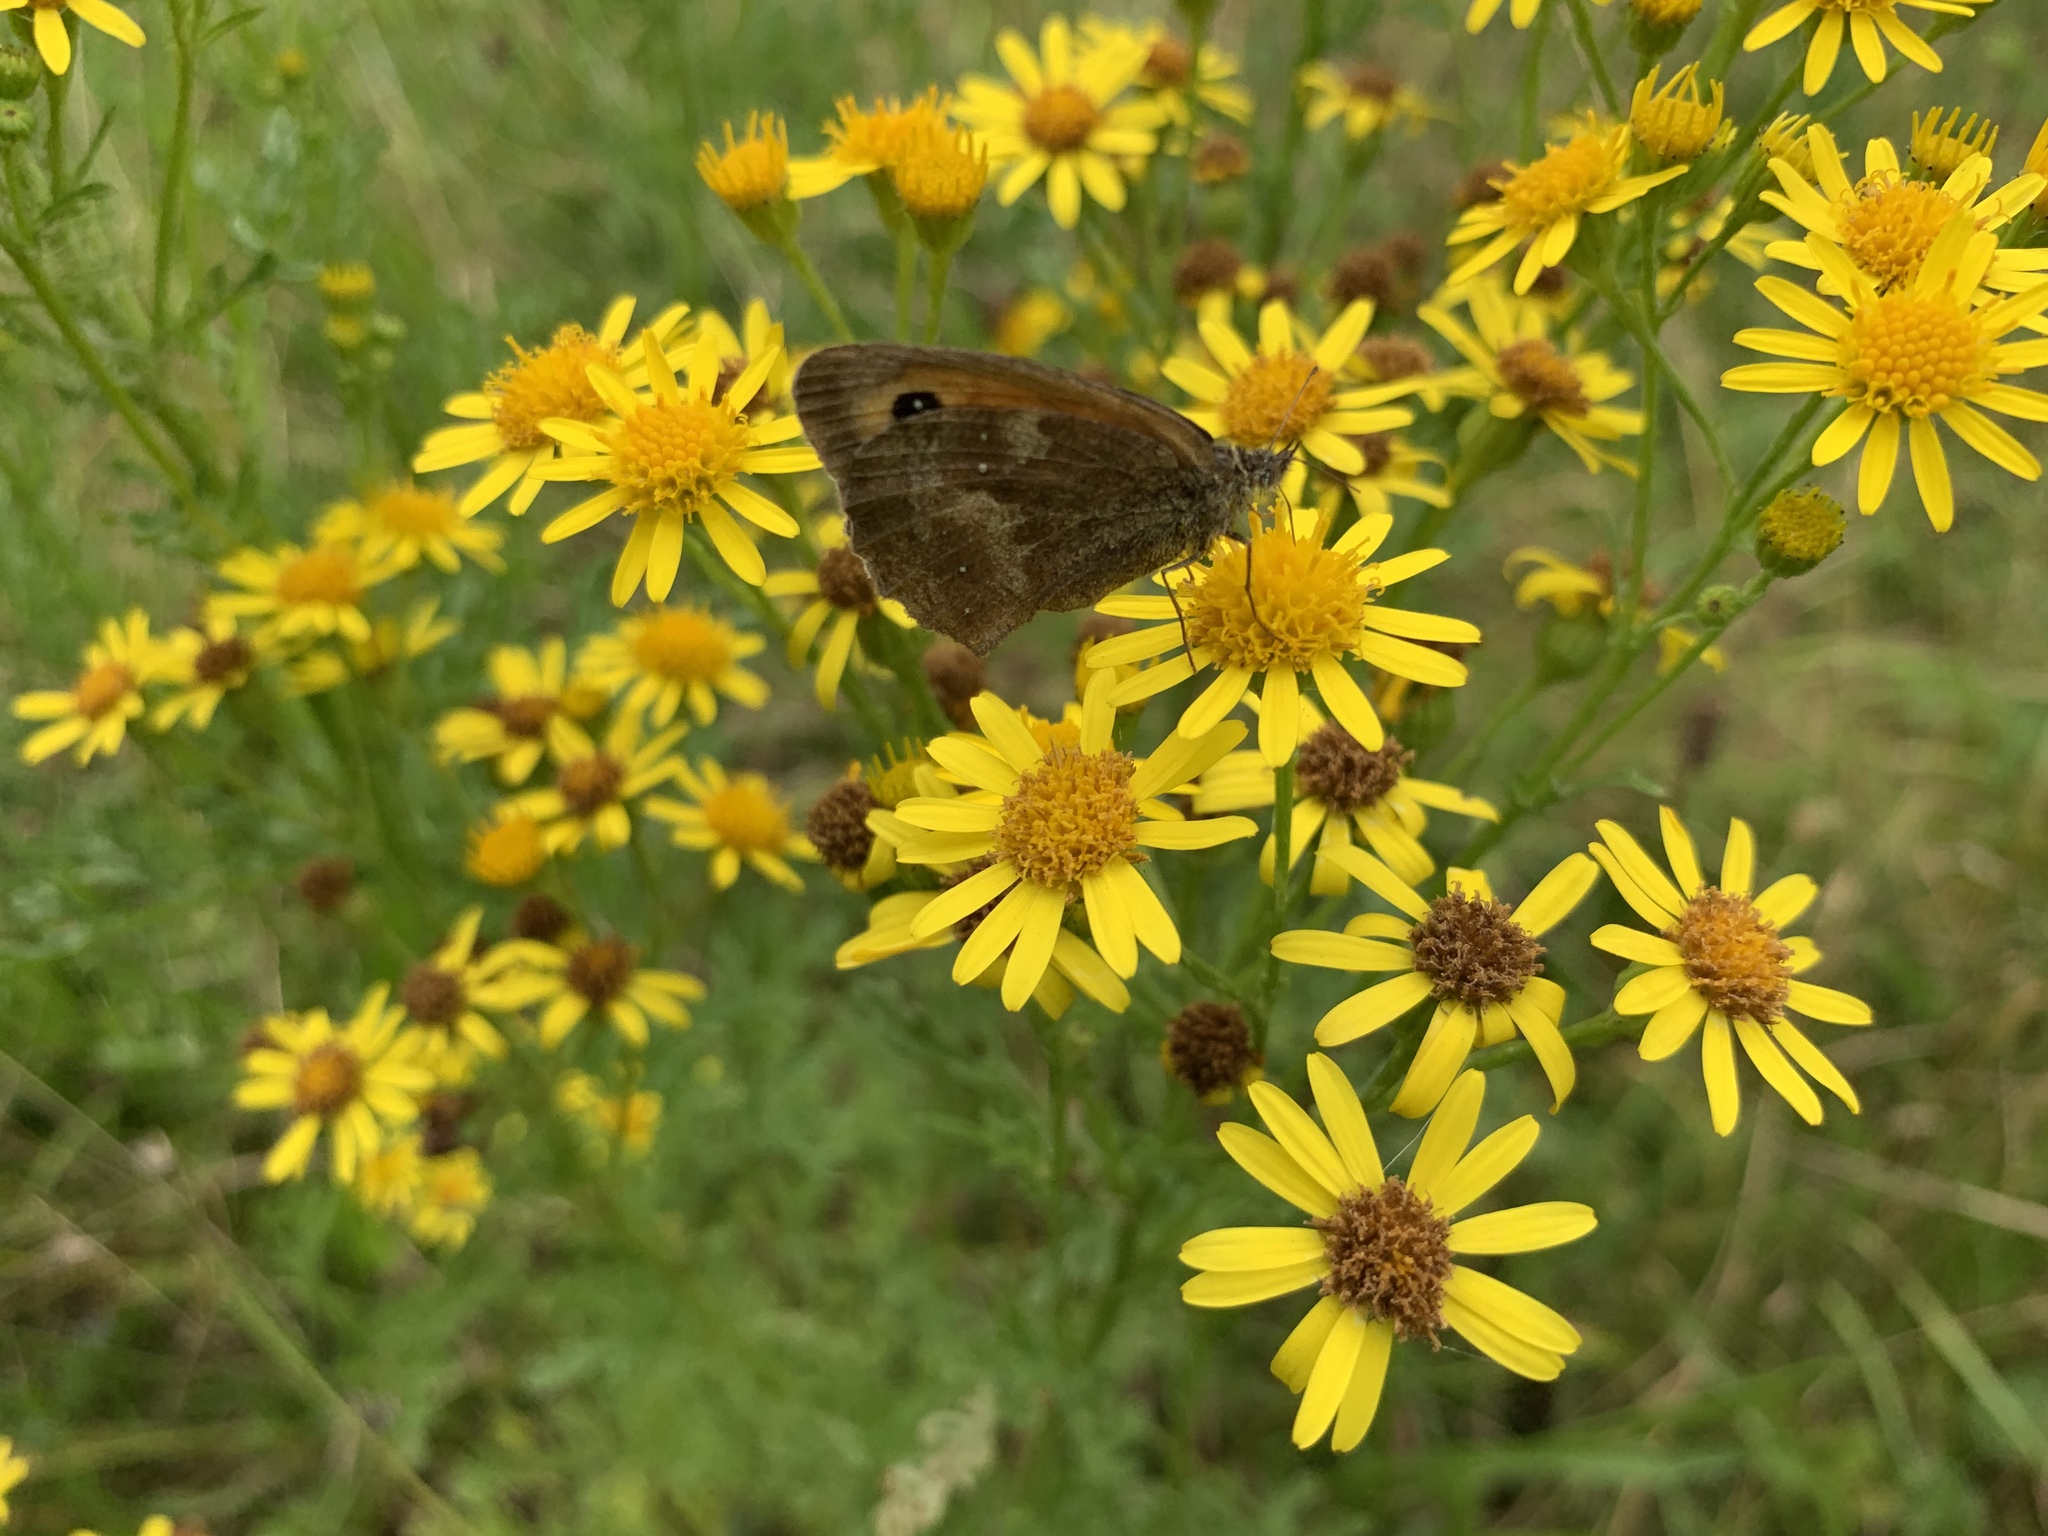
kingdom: Animalia
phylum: Arthropoda
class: Insecta
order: Lepidoptera
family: Nymphalidae
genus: Pyronia
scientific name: Pyronia tithonus
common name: Gatekeeper
